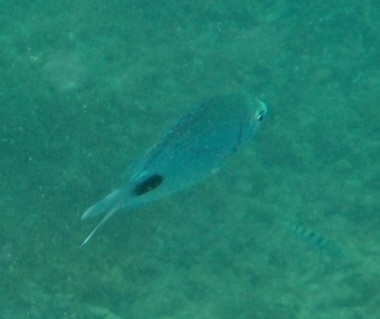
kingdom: Animalia
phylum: Chordata
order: Perciformes
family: Pomacentridae
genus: Abudefduf
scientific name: Abudefduf sparoides
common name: False-eye sergeant
